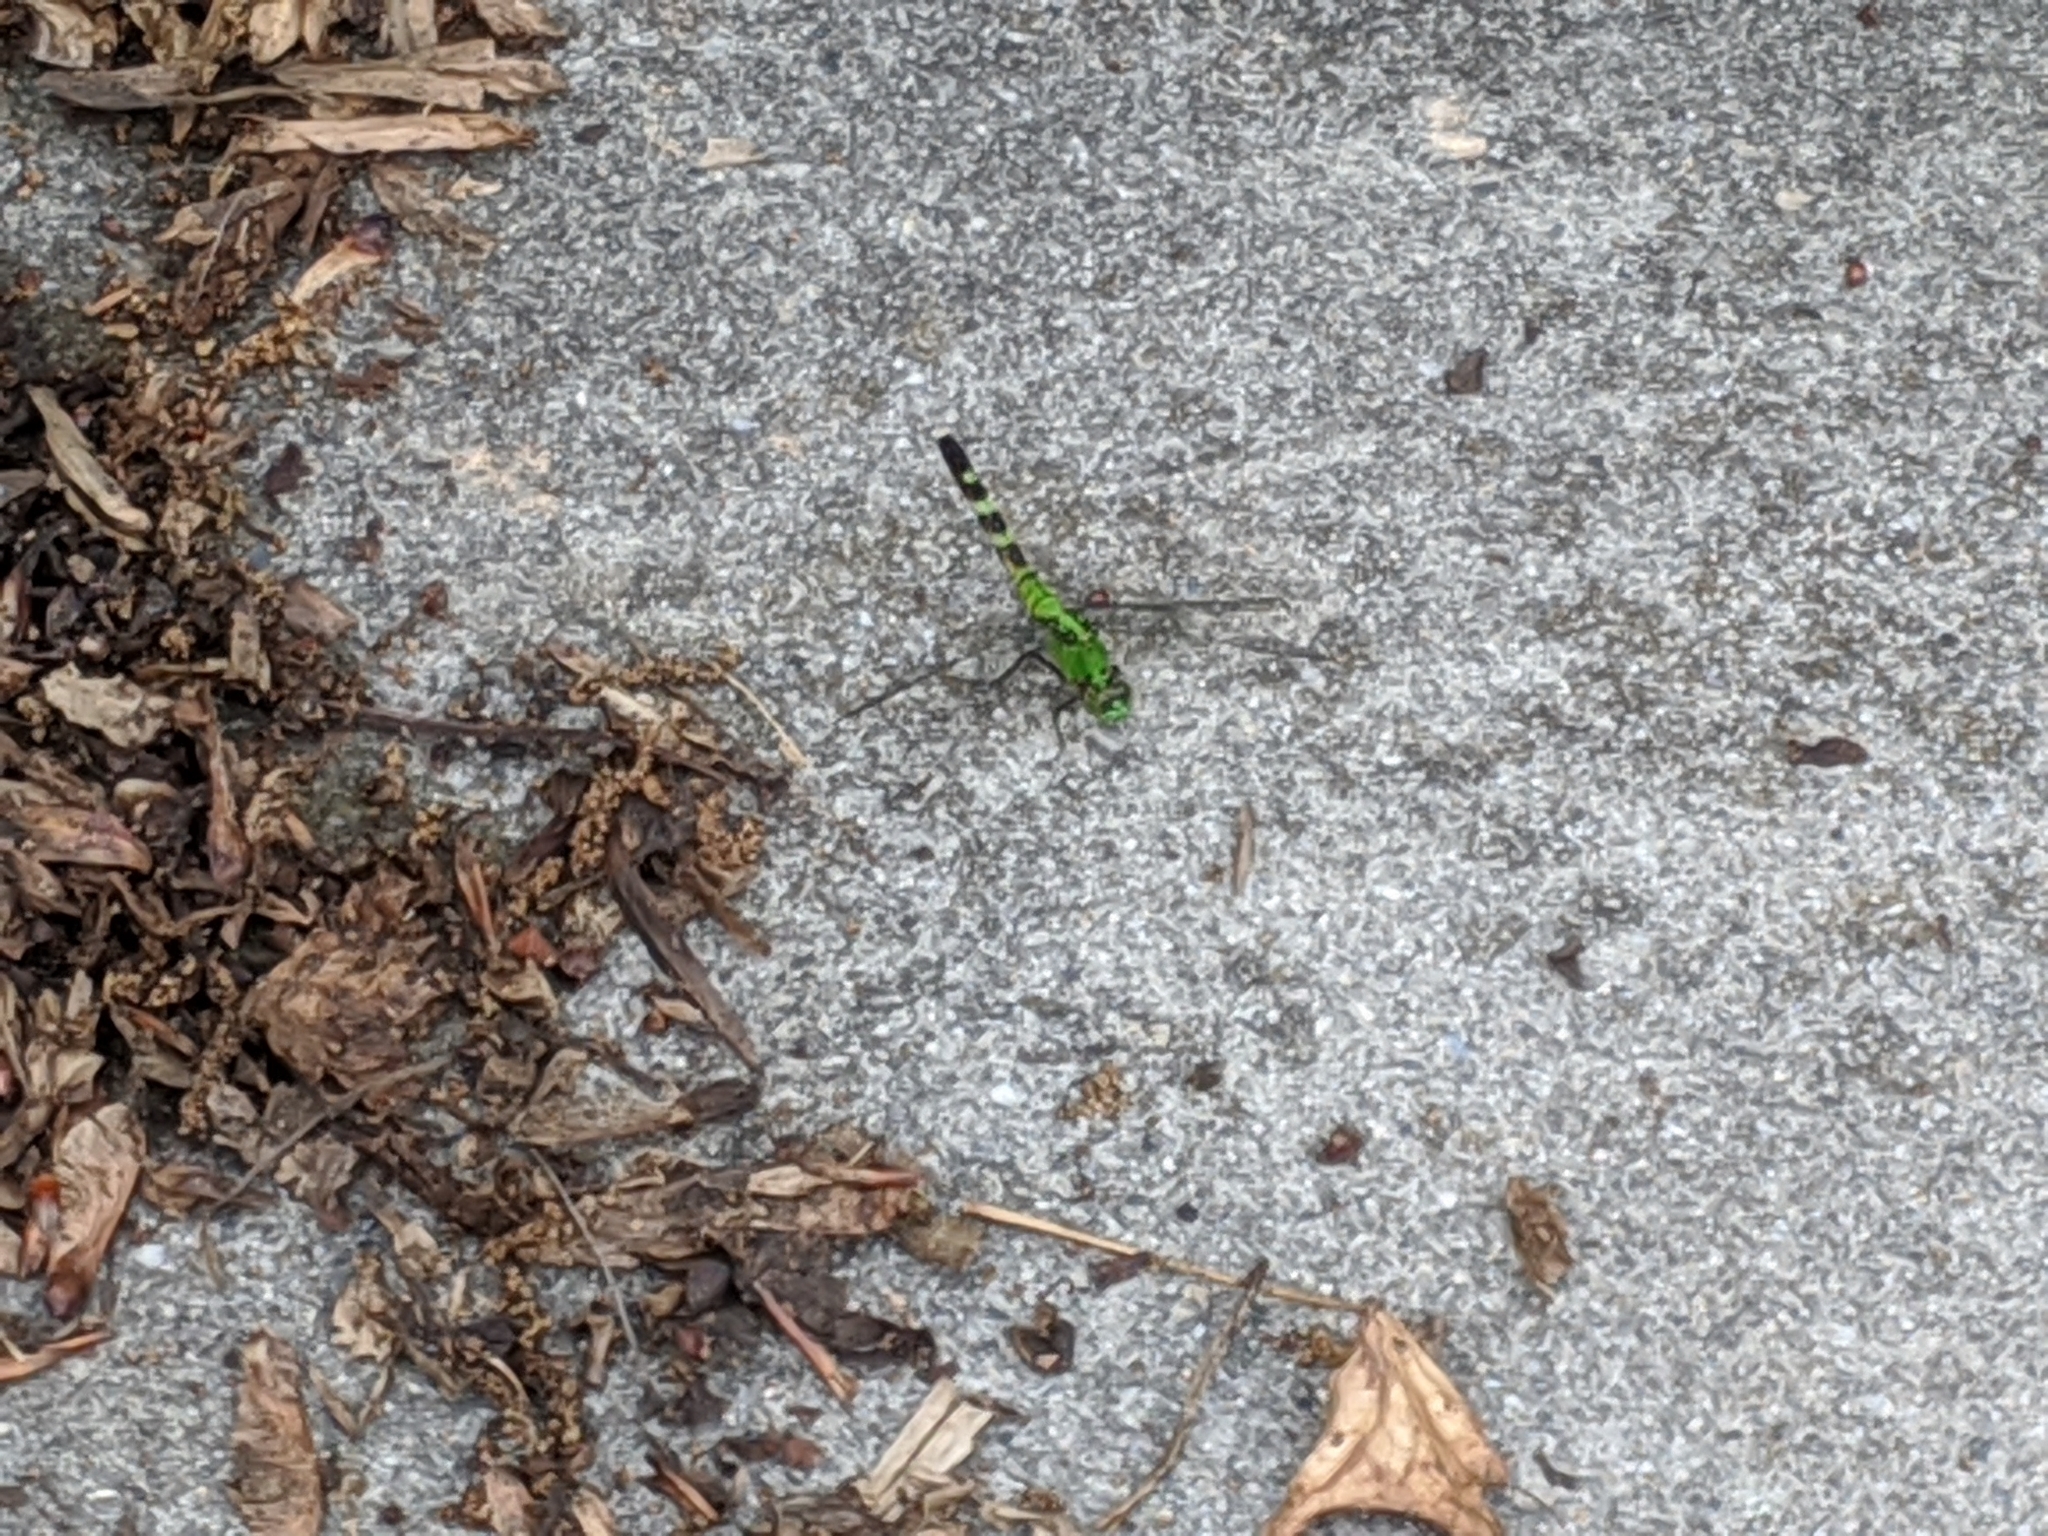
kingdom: Animalia
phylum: Arthropoda
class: Insecta
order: Odonata
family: Libellulidae
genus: Erythemis
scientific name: Erythemis simplicicollis
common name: Eastern pondhawk
